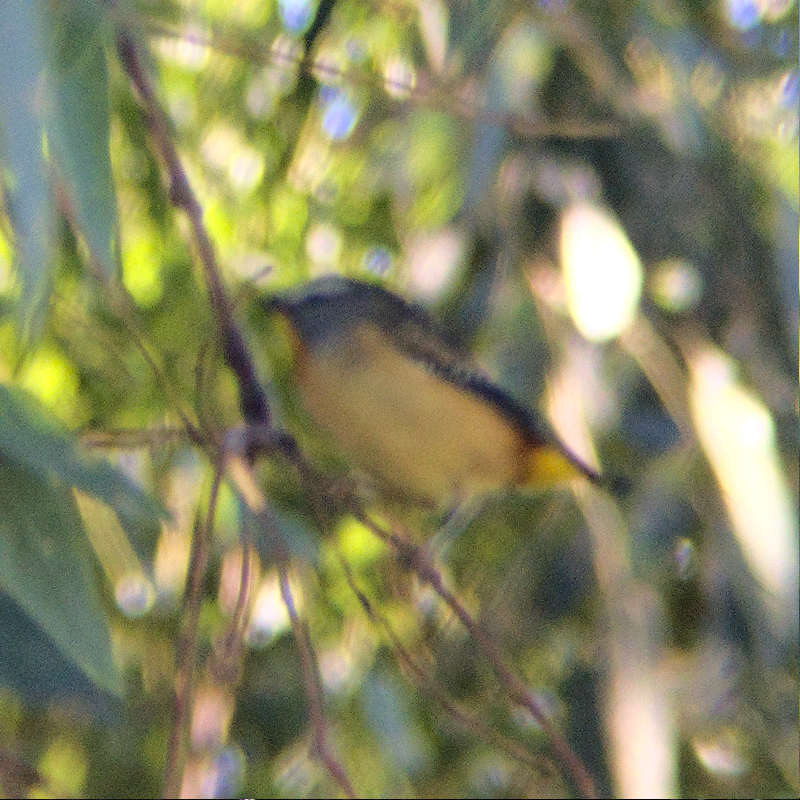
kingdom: Animalia
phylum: Chordata
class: Aves
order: Passeriformes
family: Pardalotidae
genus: Pardalotus
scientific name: Pardalotus punctatus
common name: Spotted pardalote
